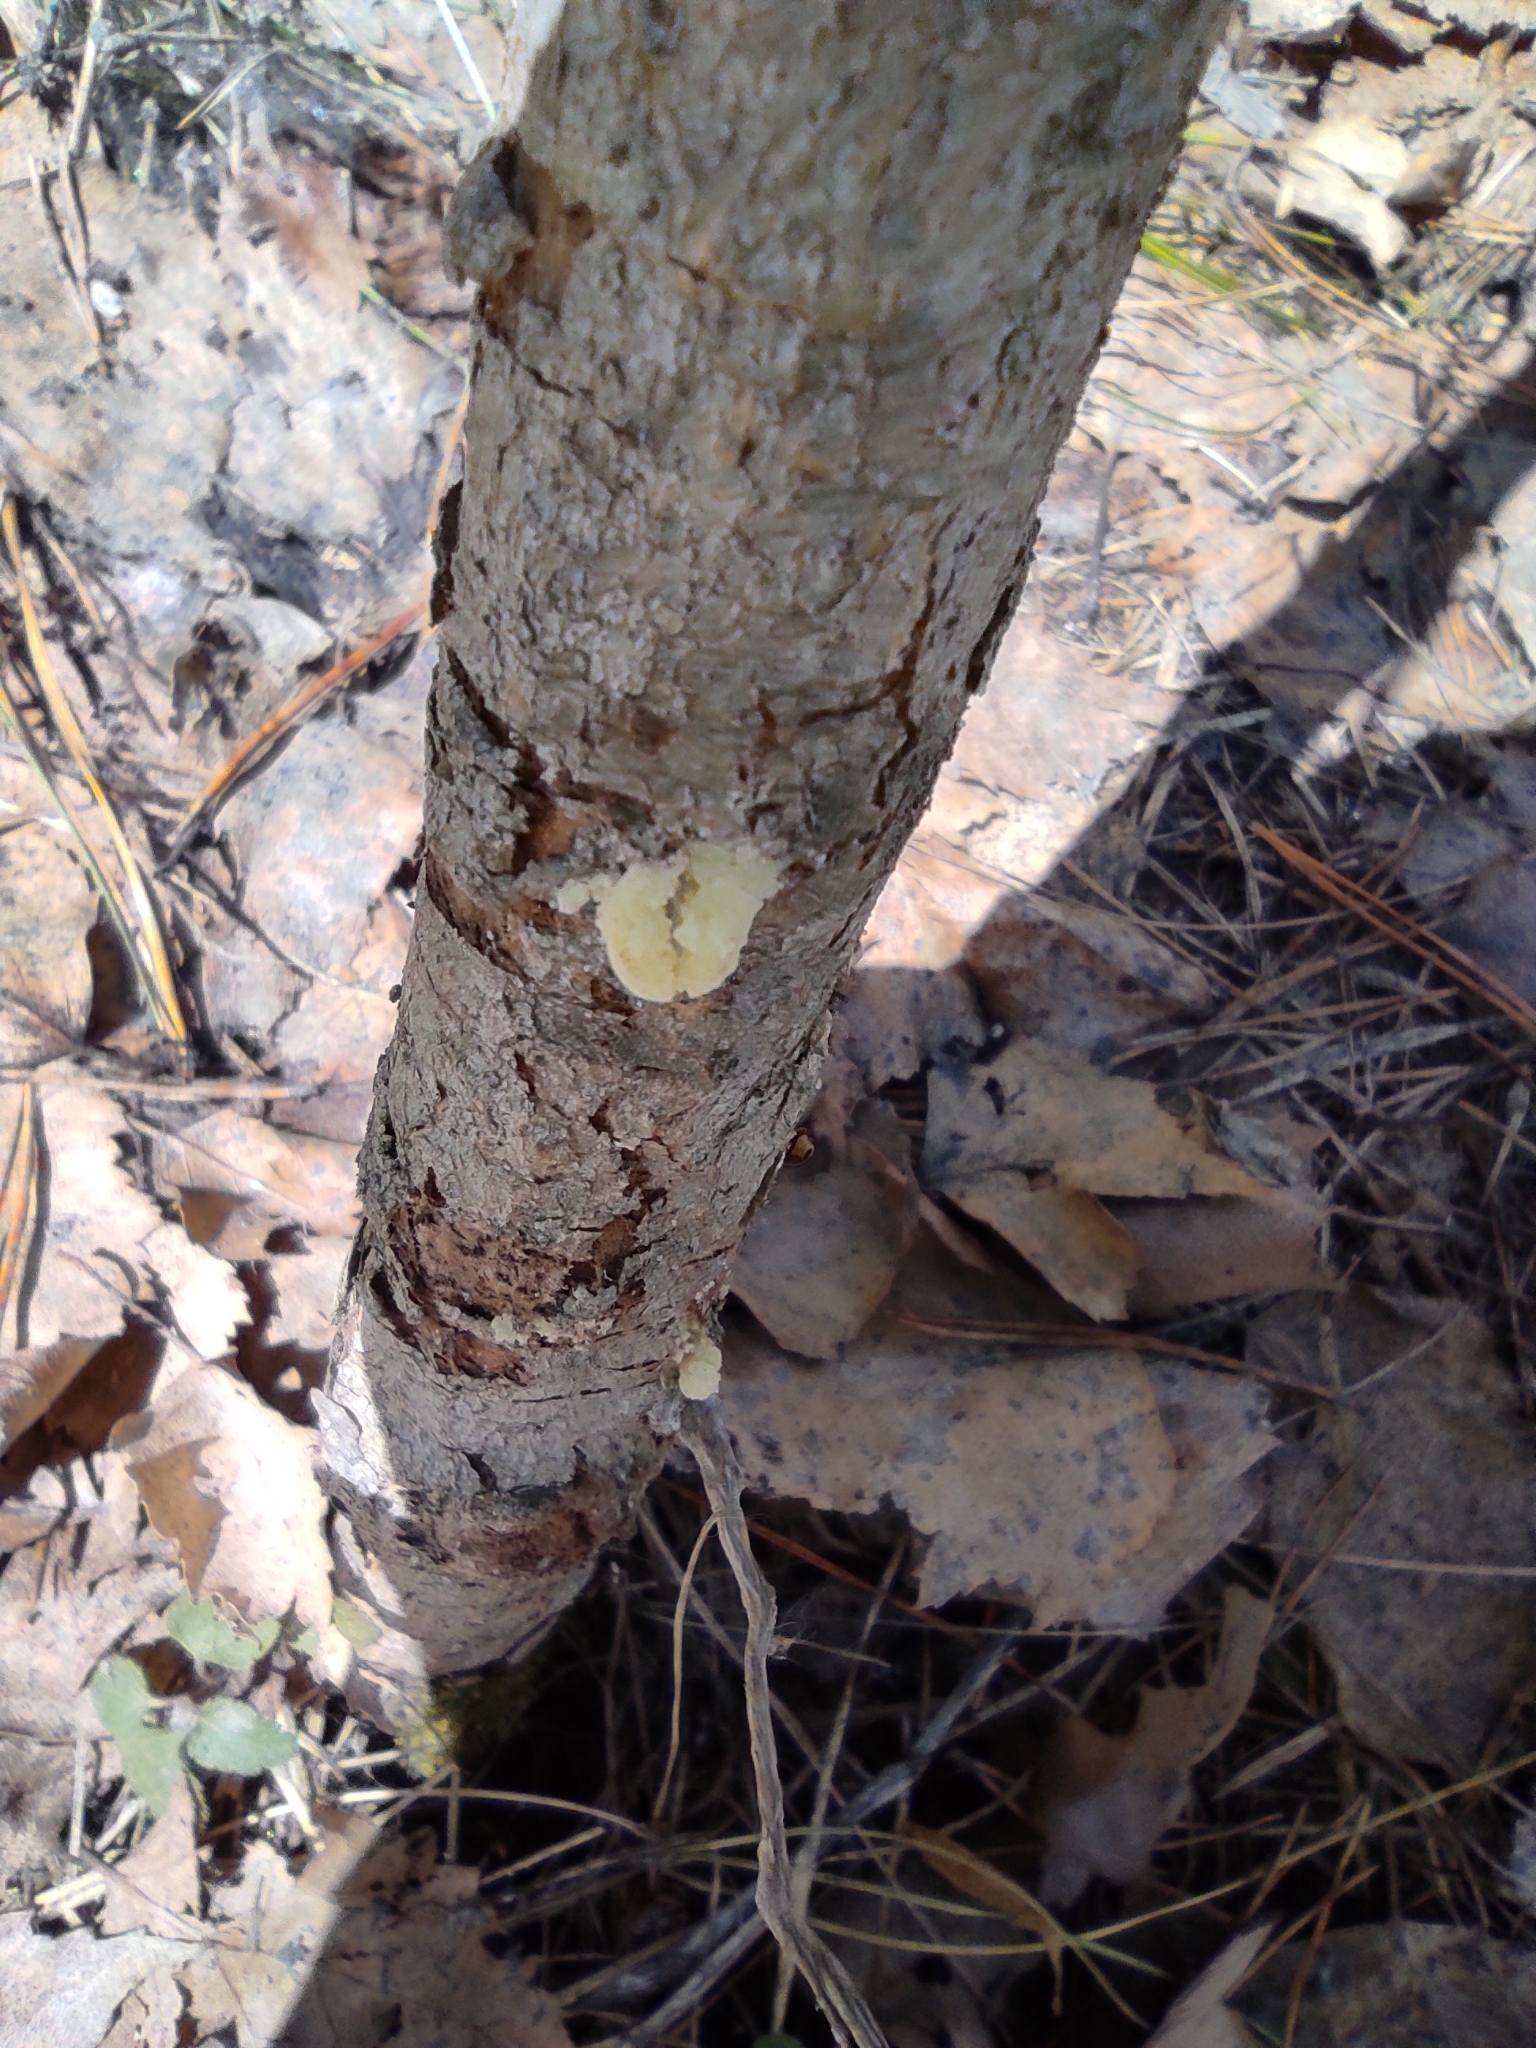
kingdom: Plantae
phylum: Tracheophyta
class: Pinopsida
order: Pinales
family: Pinaceae
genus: Pinus
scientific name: Pinus sylvestris
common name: Scots pine
